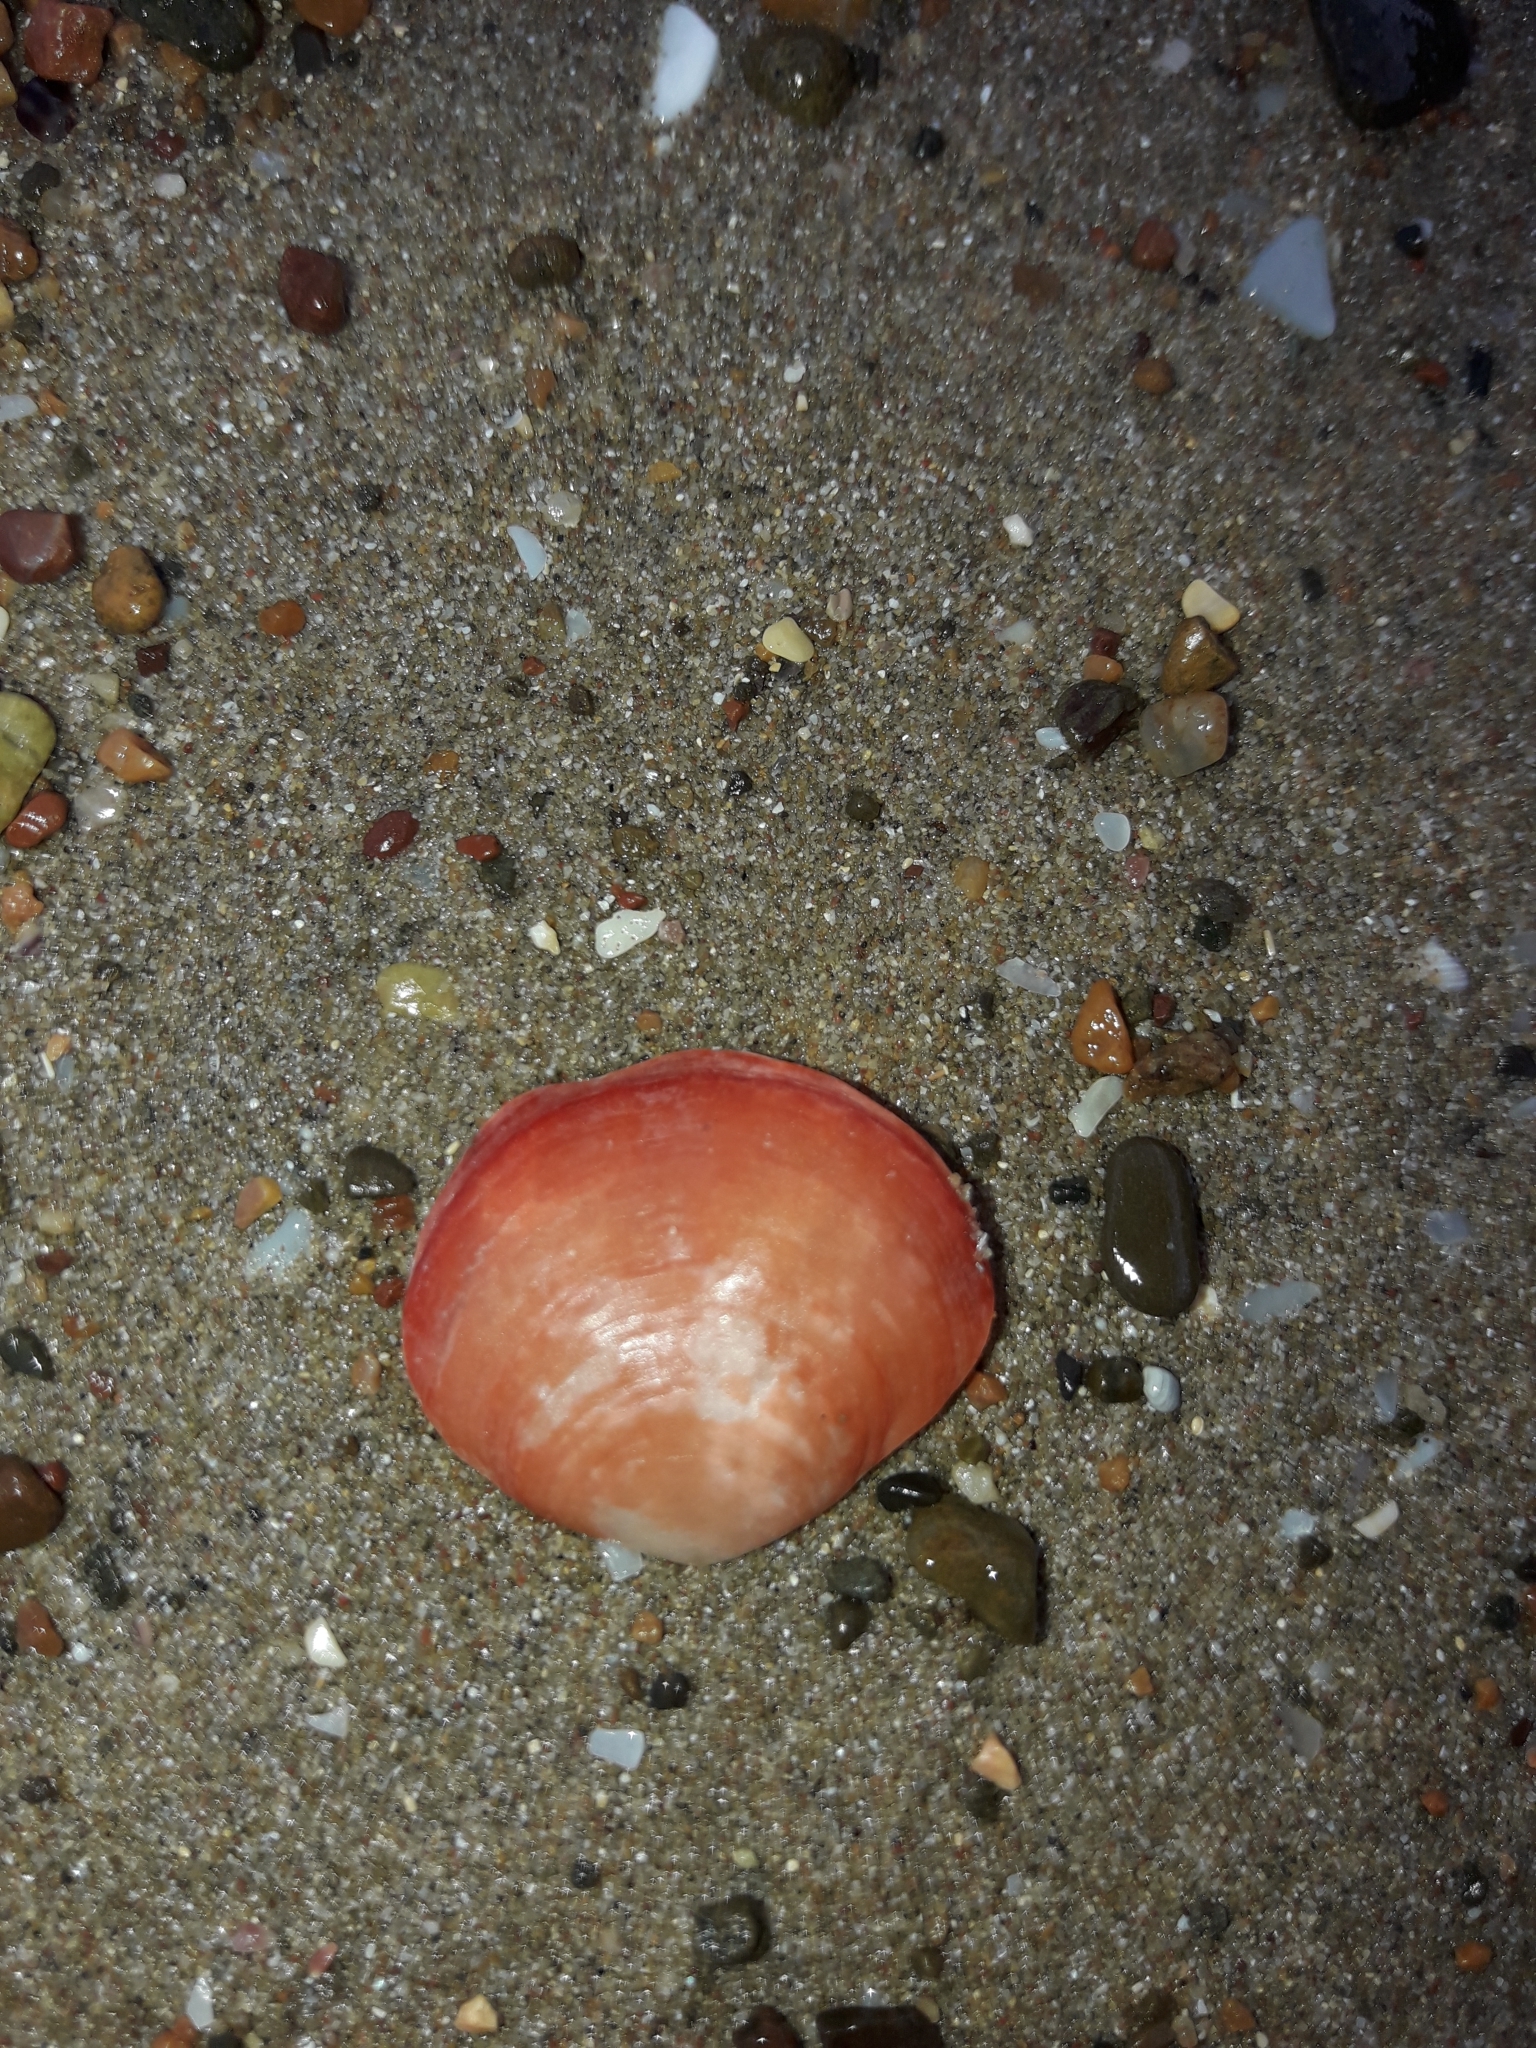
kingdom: Animalia
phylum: Brachiopoda
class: Rhynchonellata
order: Terebratulida
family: Terebratellidae
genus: Calloria
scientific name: Calloria inconspicua
